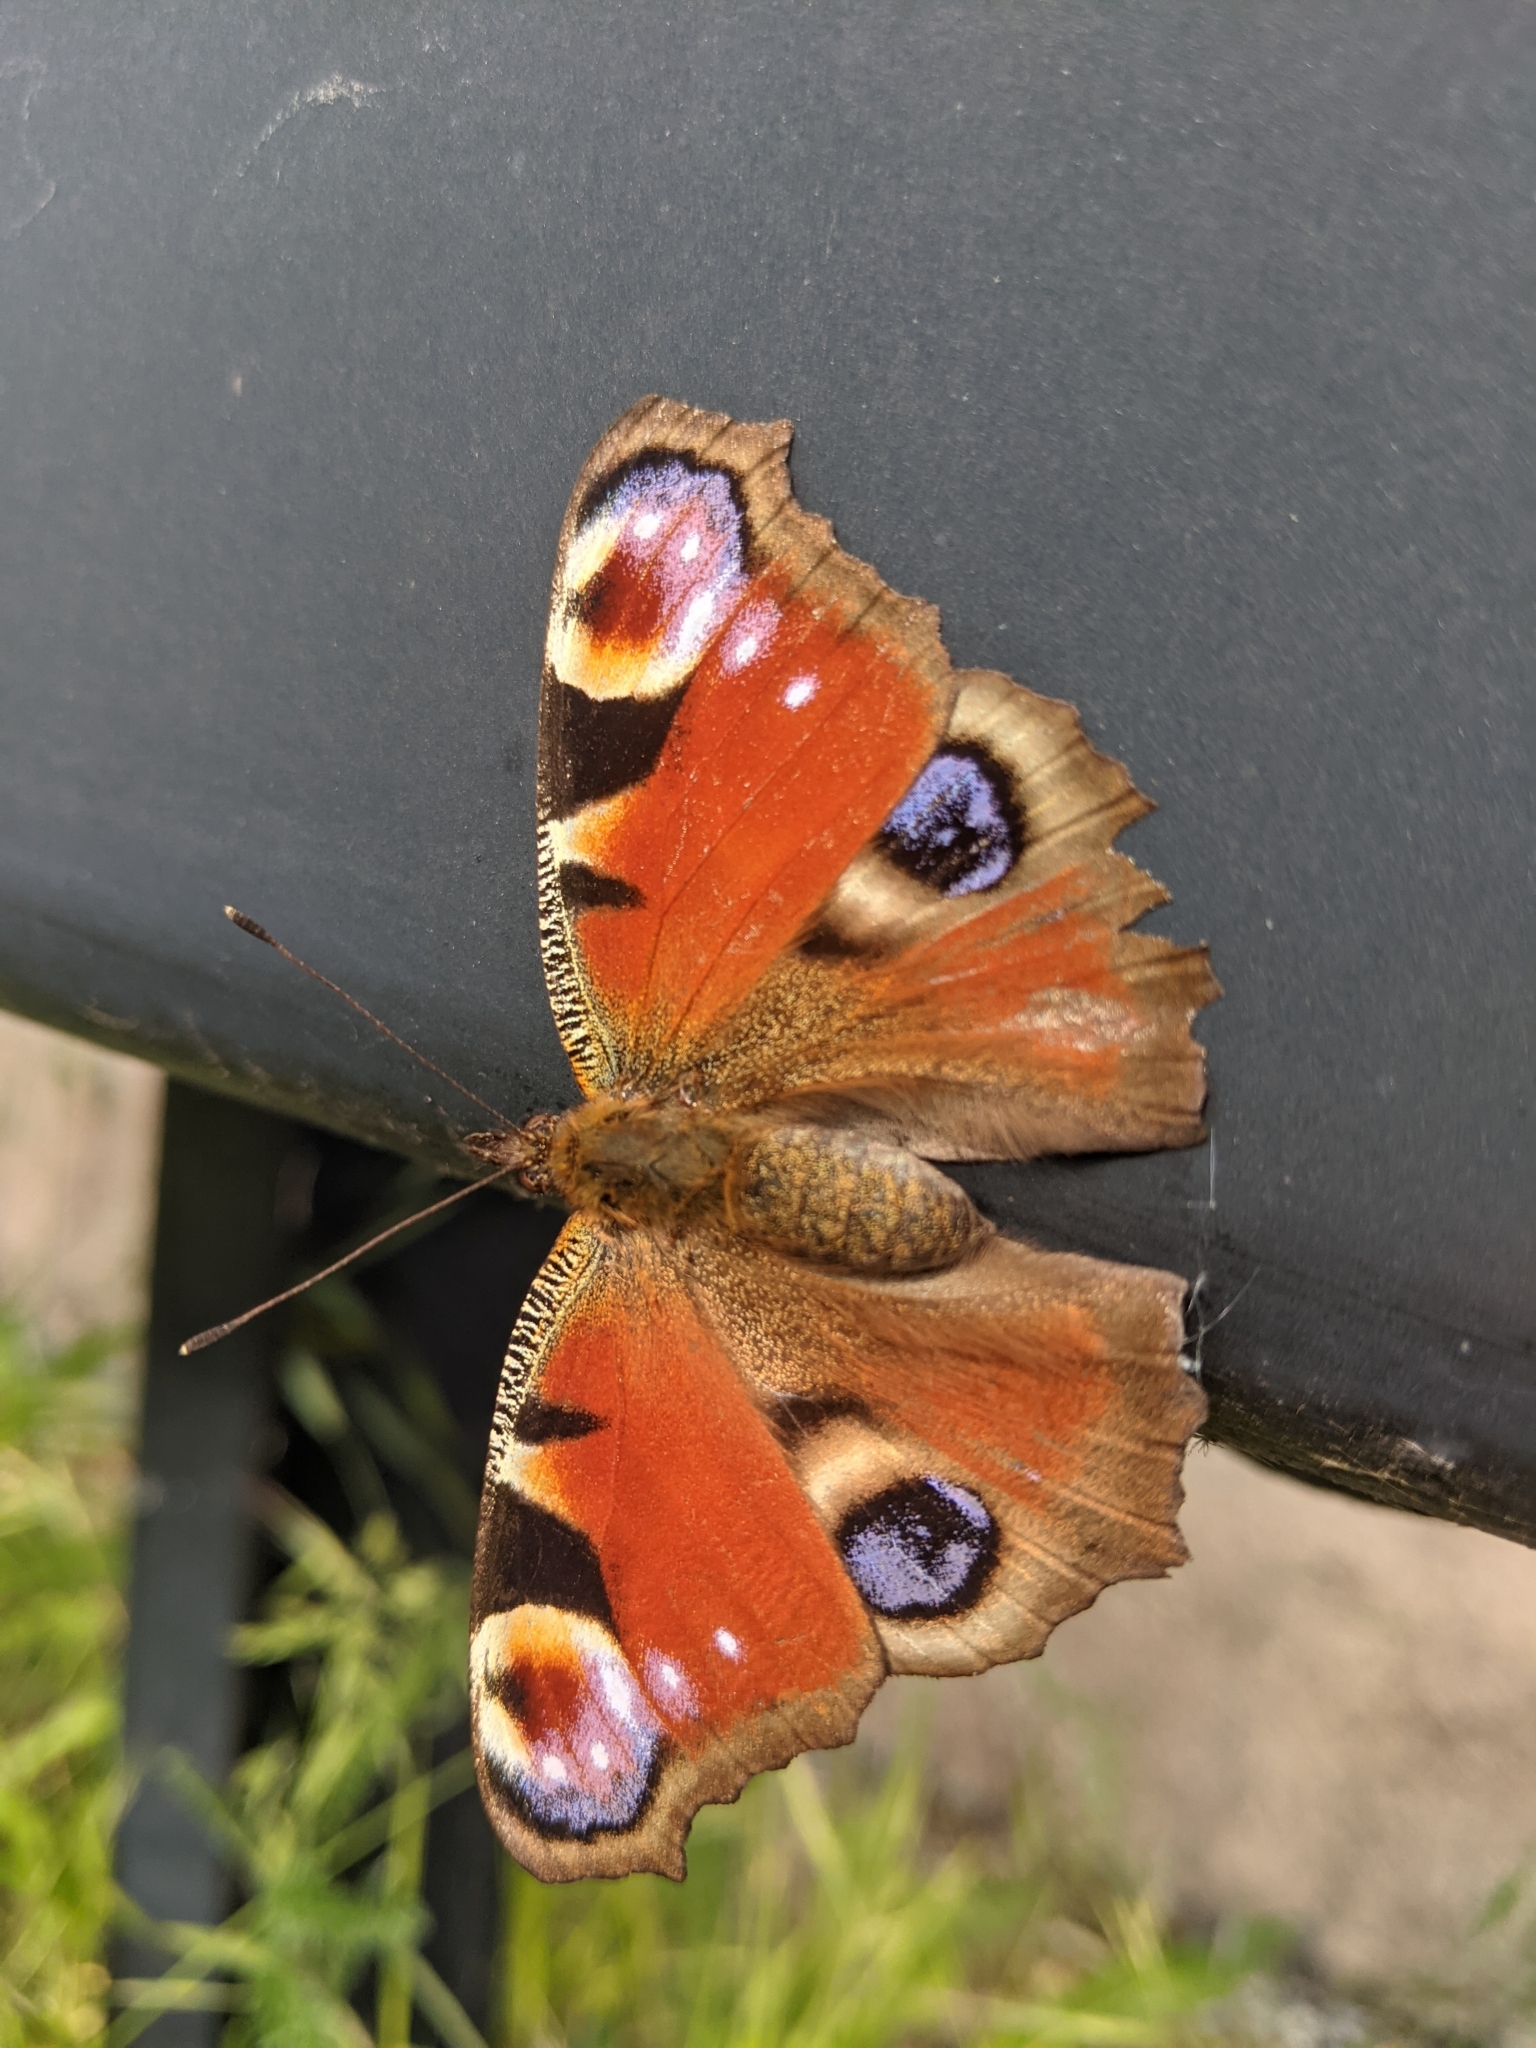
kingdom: Animalia
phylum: Arthropoda
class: Insecta
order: Lepidoptera
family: Nymphalidae
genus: Aglais
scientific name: Aglais io
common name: Peacock
